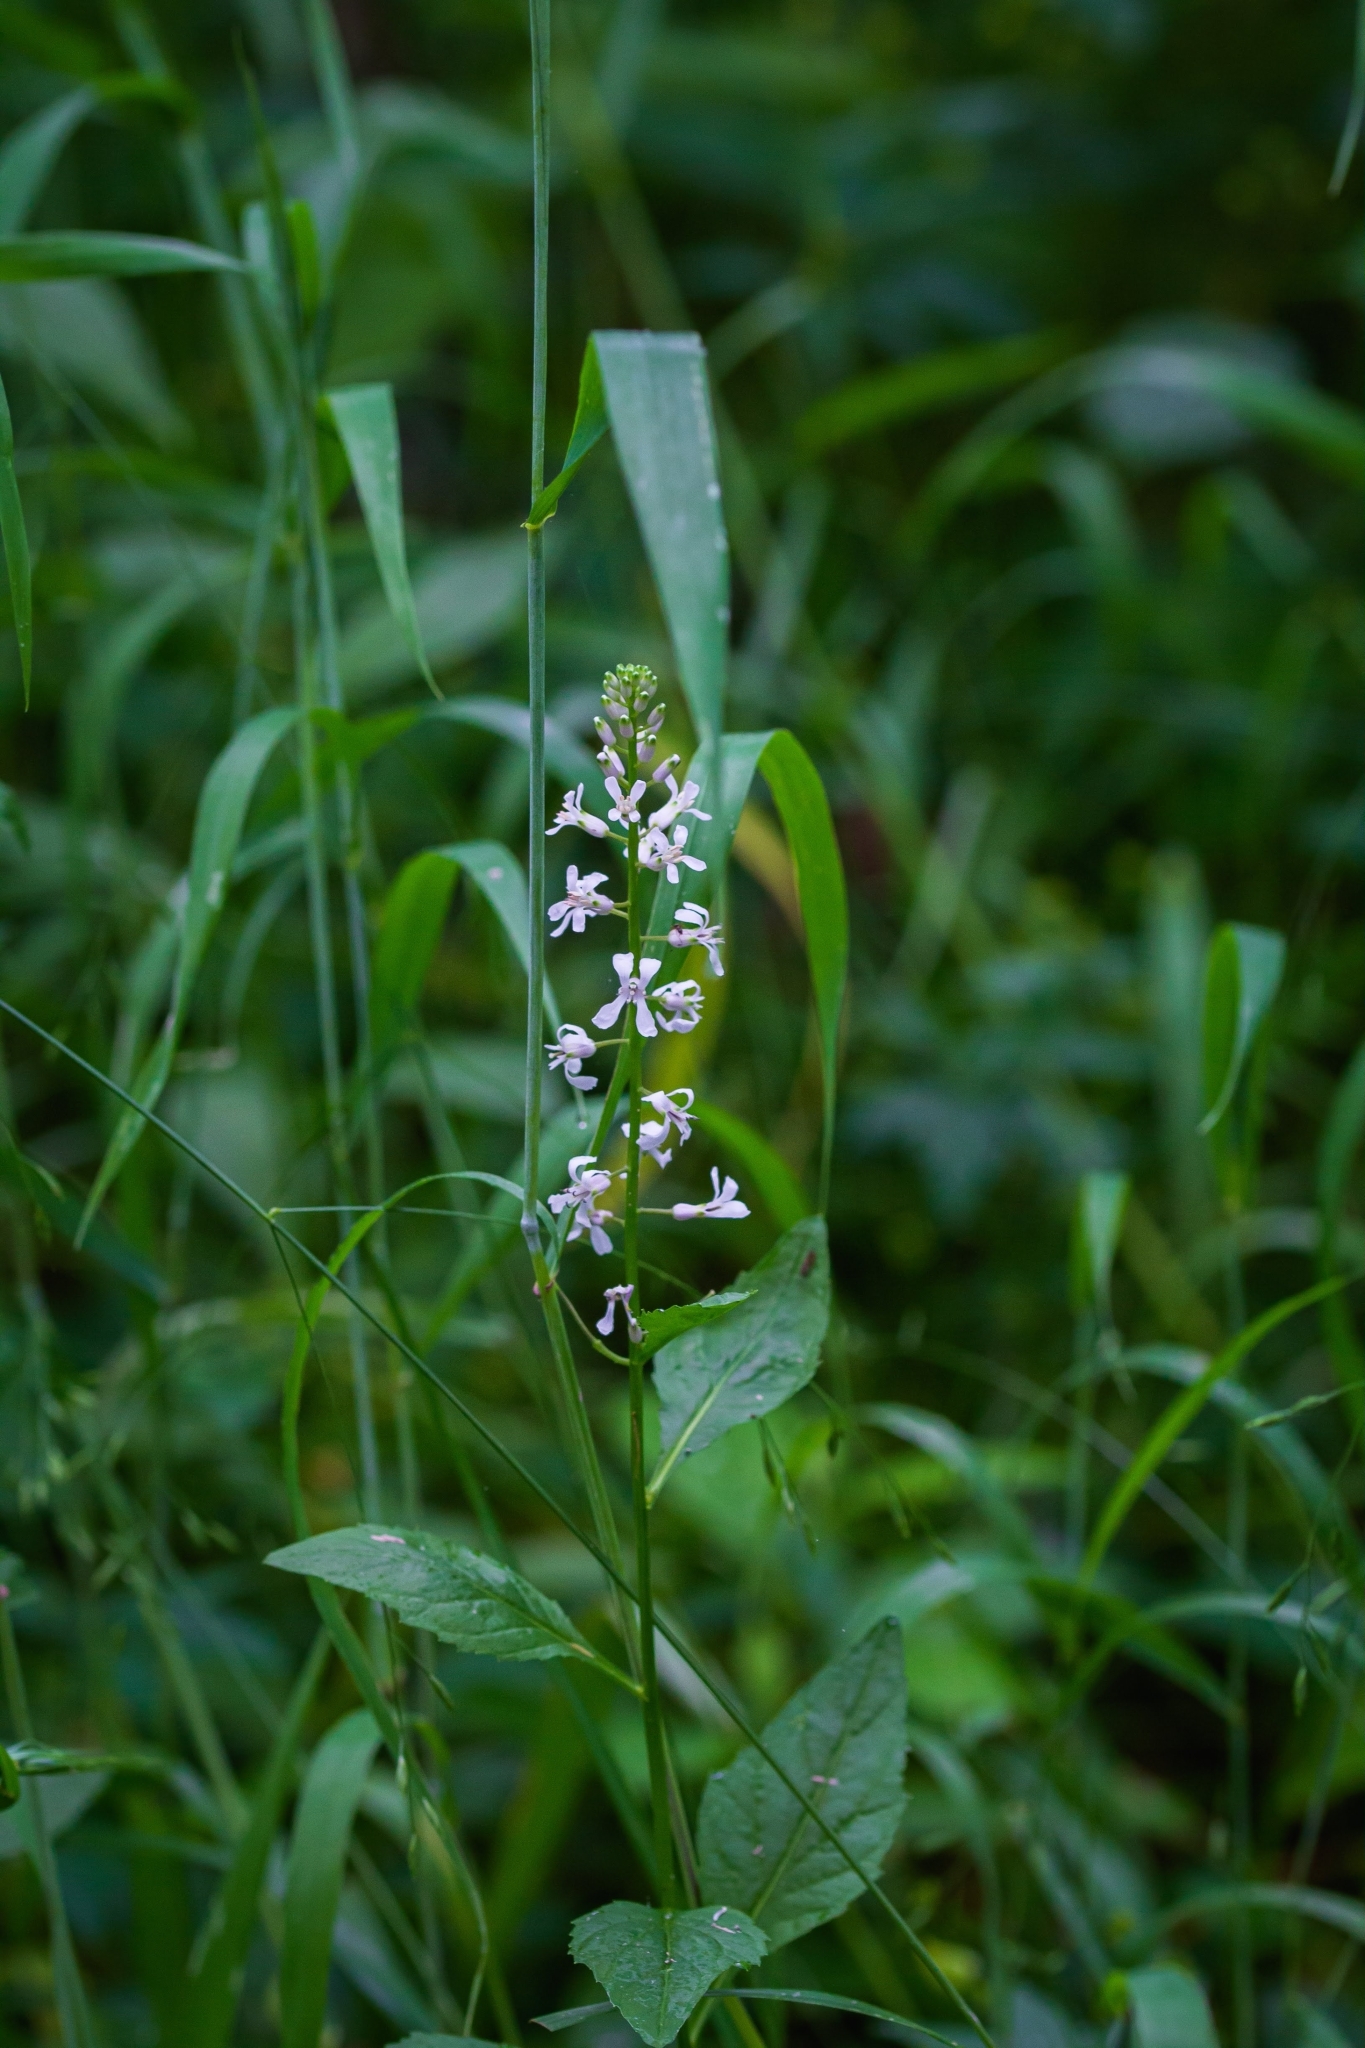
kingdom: Plantae
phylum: Tracheophyta
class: Magnoliopsida
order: Brassicales
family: Brassicaceae
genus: Iodanthus
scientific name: Iodanthus pinnatifidus
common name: Violet rocket
